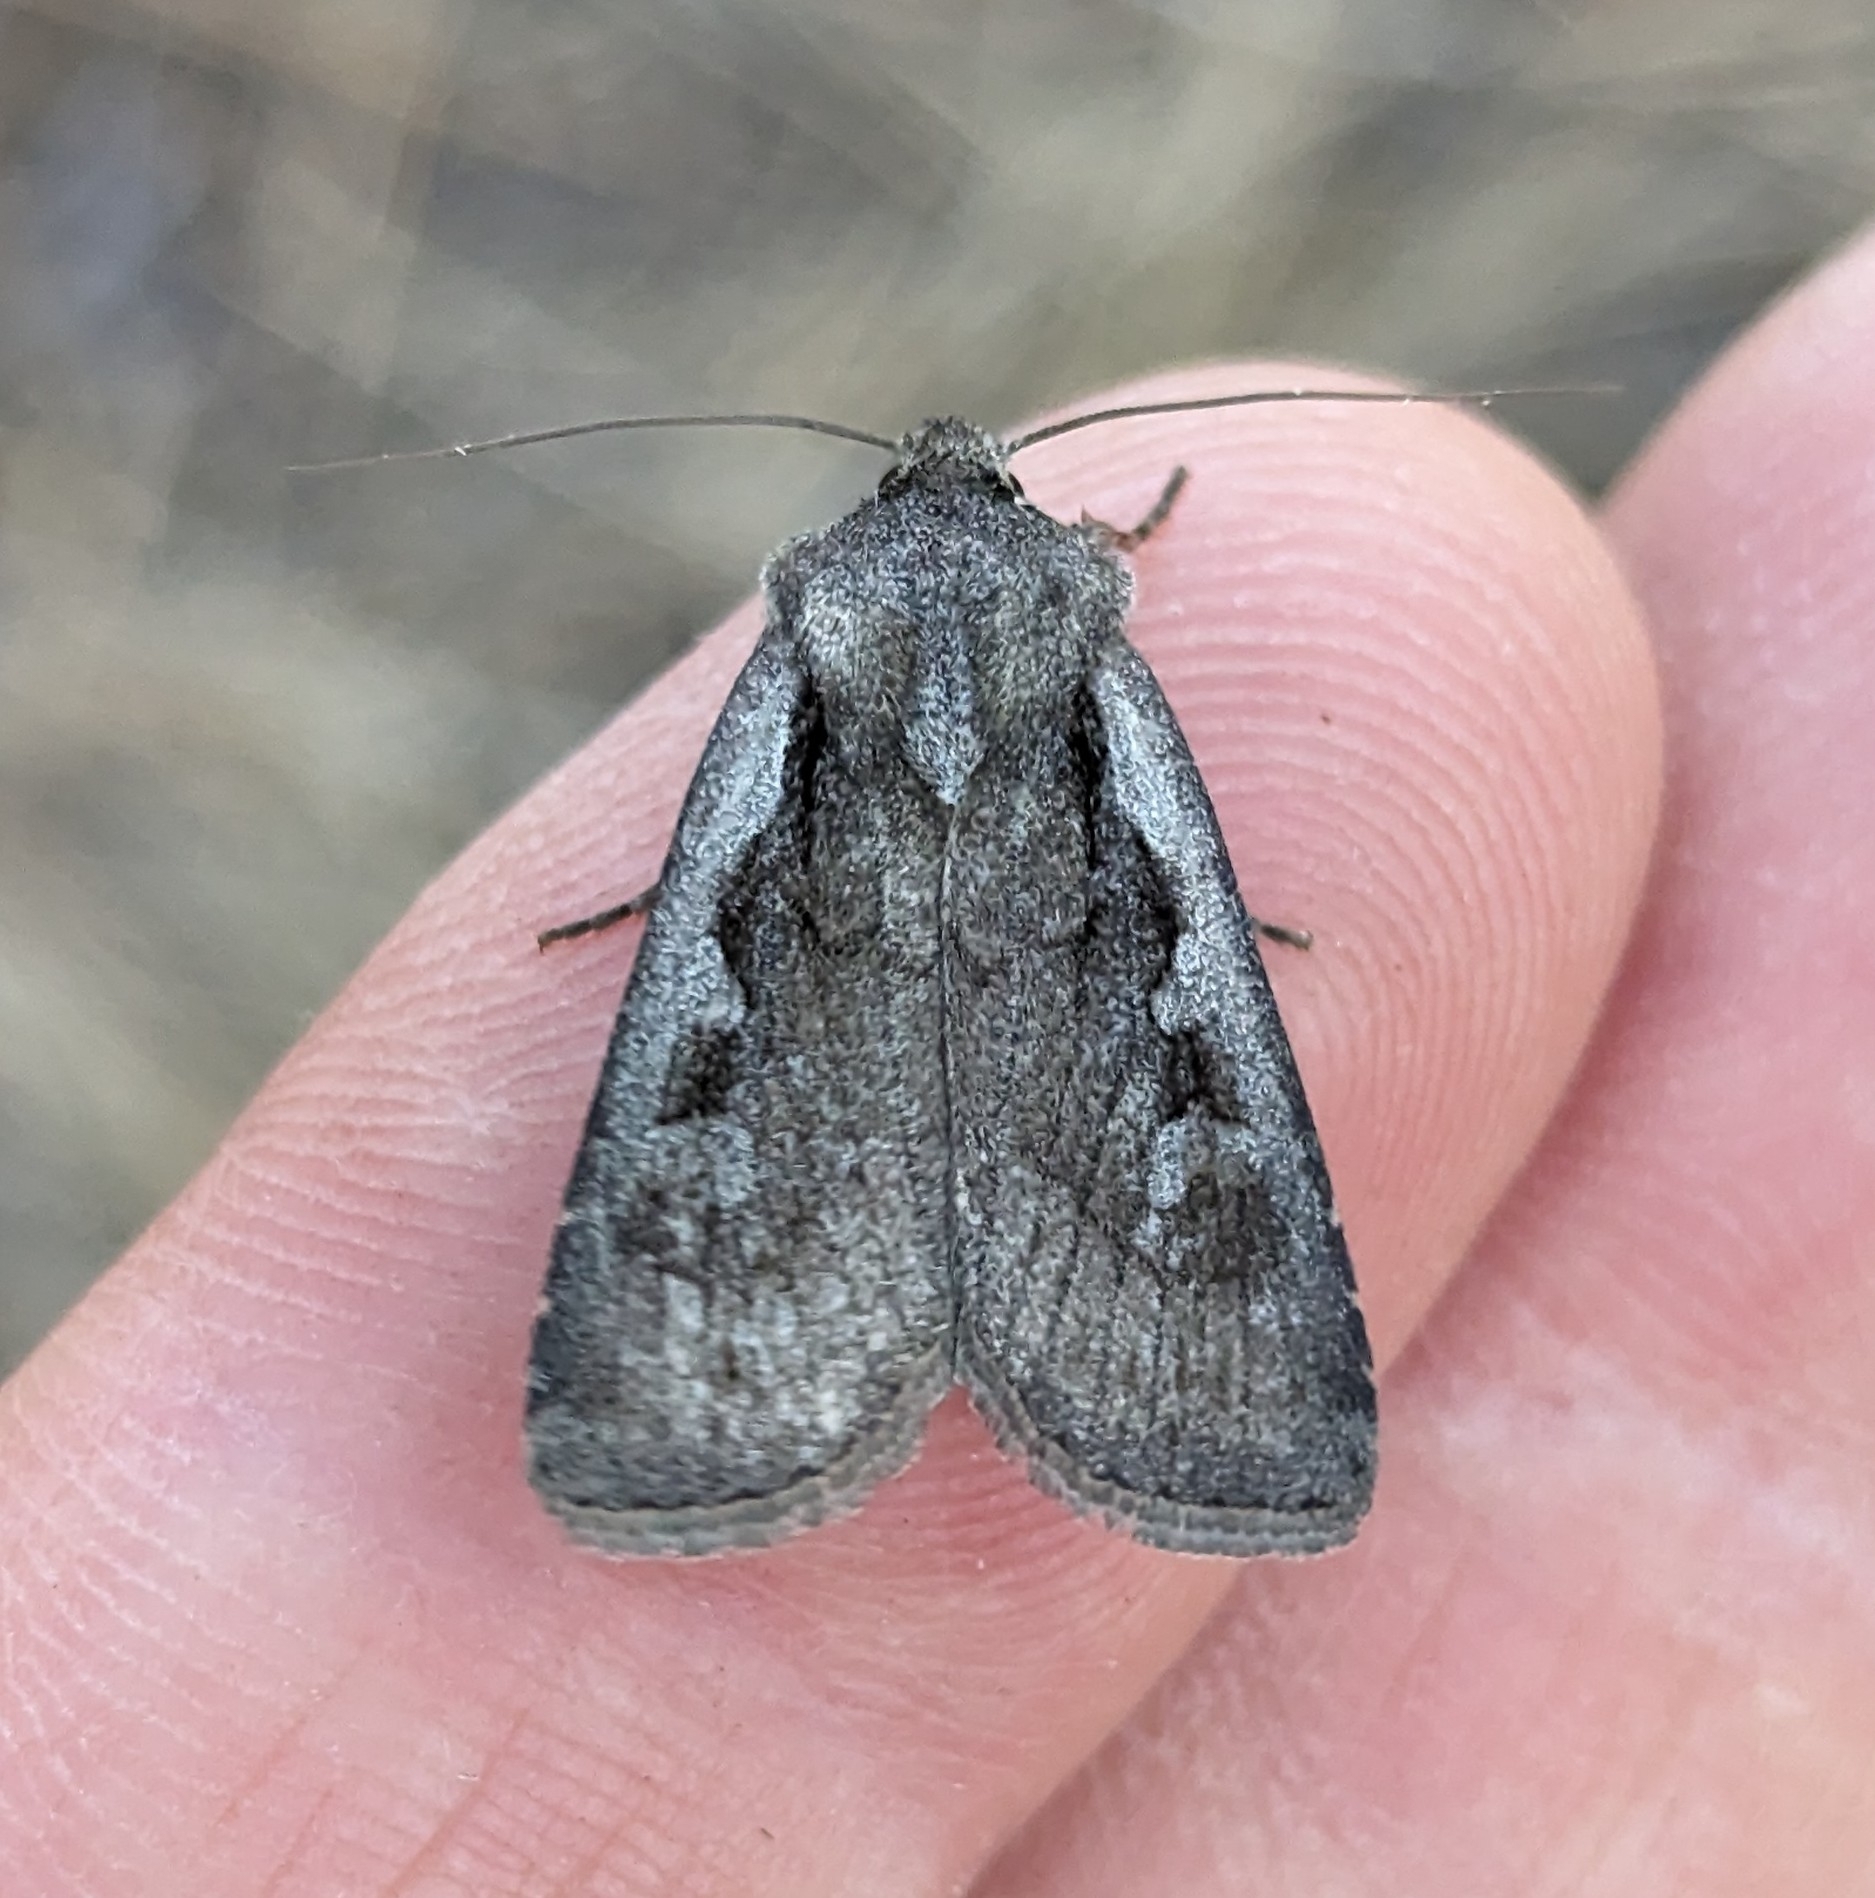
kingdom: Animalia
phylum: Arthropoda
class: Insecta
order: Lepidoptera
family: Noctuidae
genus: Euxoa
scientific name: Euxoa idahoensis
